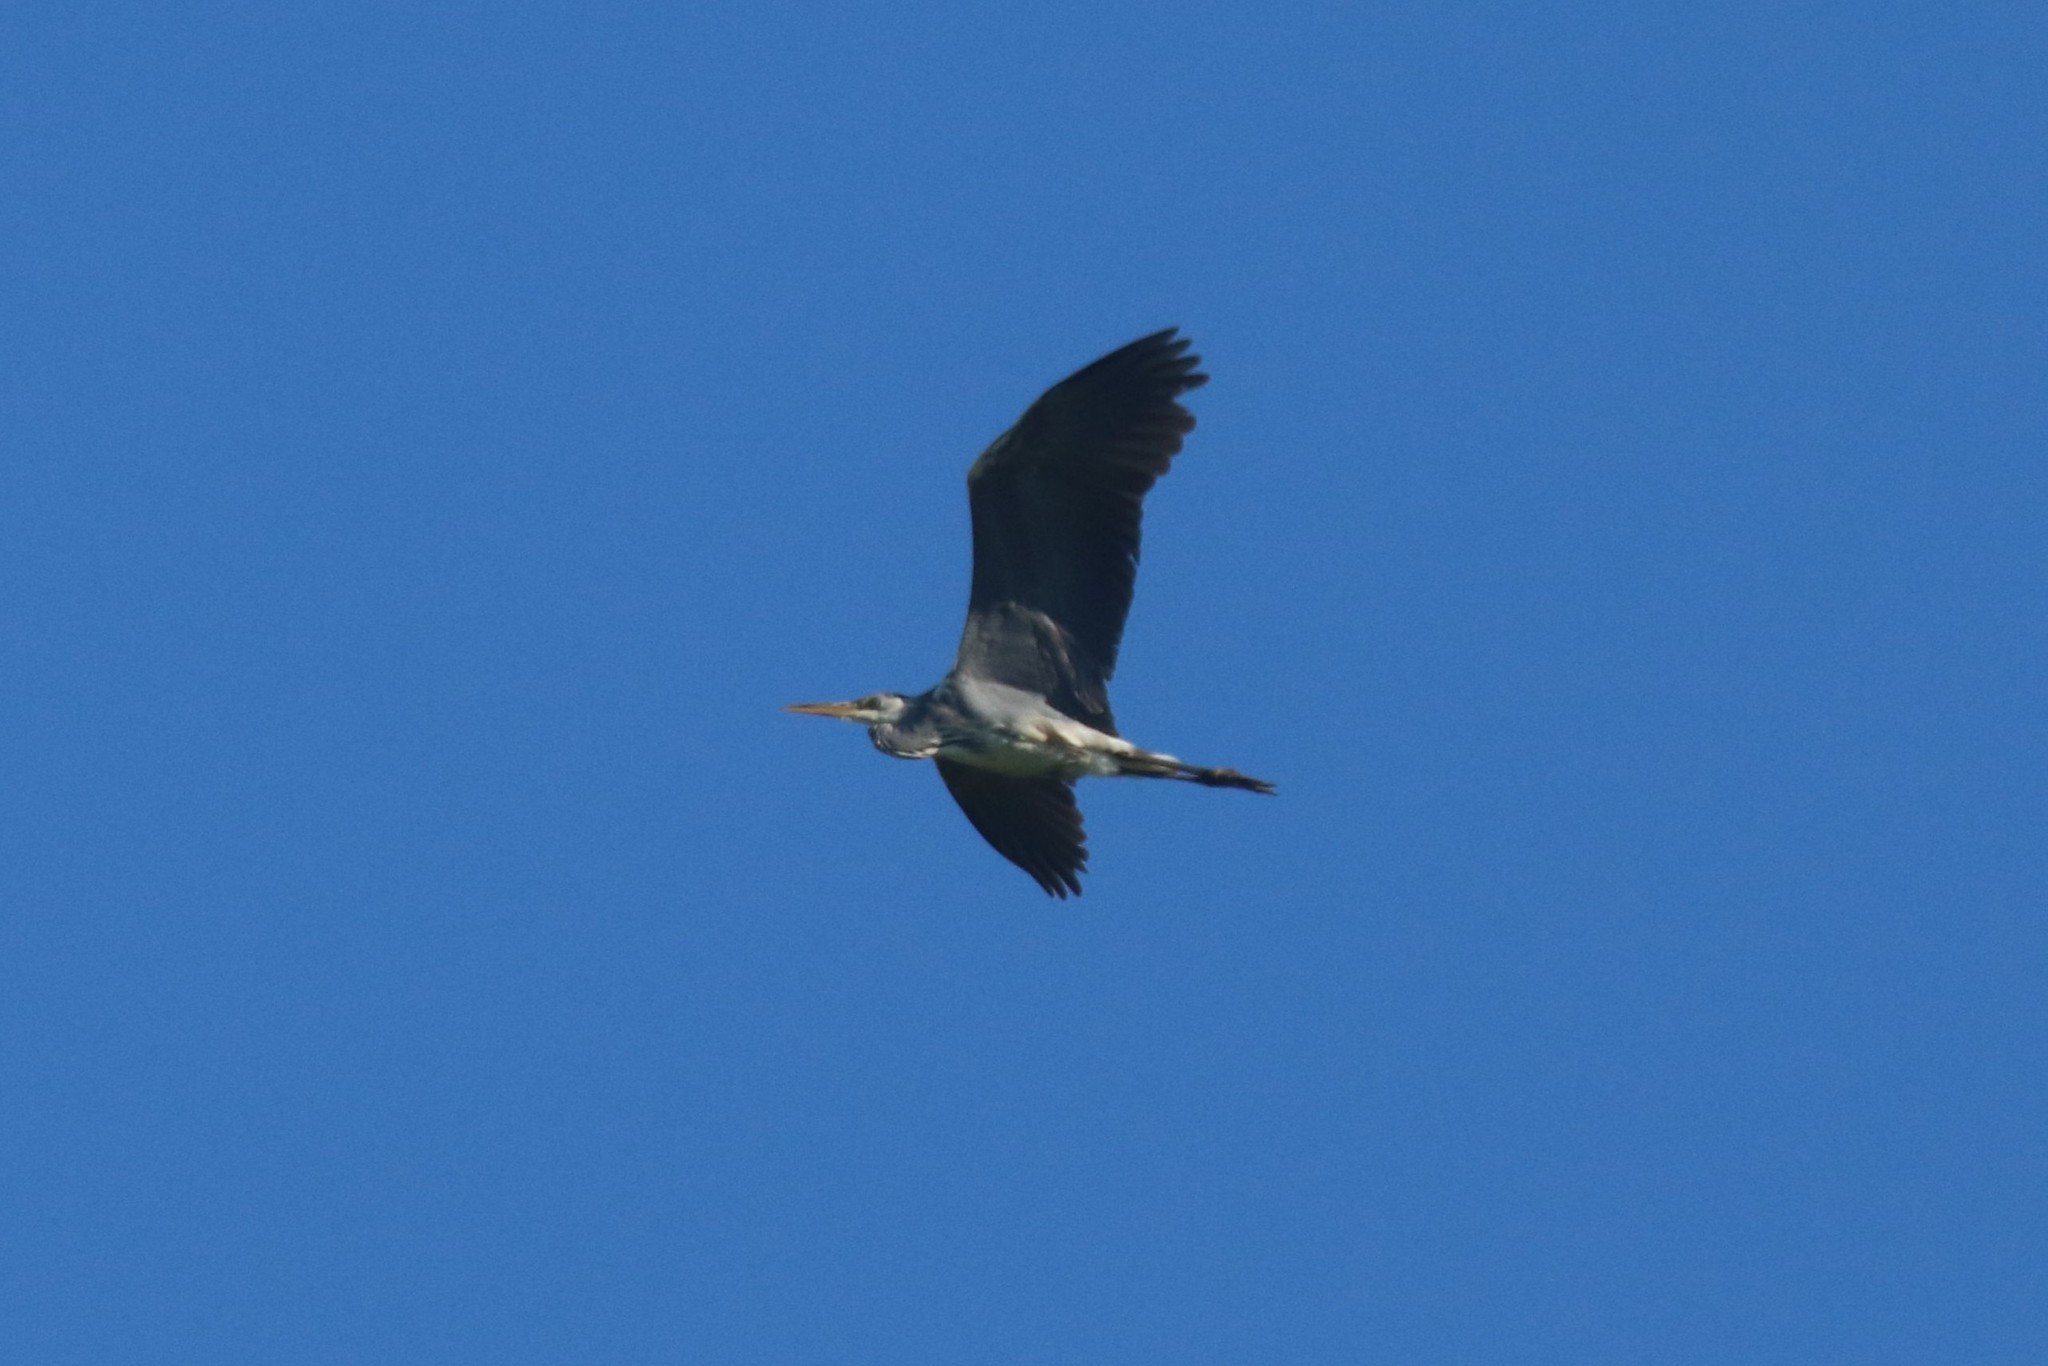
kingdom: Animalia
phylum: Chordata
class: Aves
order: Pelecaniformes
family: Ardeidae
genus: Ardea
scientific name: Ardea cinerea
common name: Grey heron
